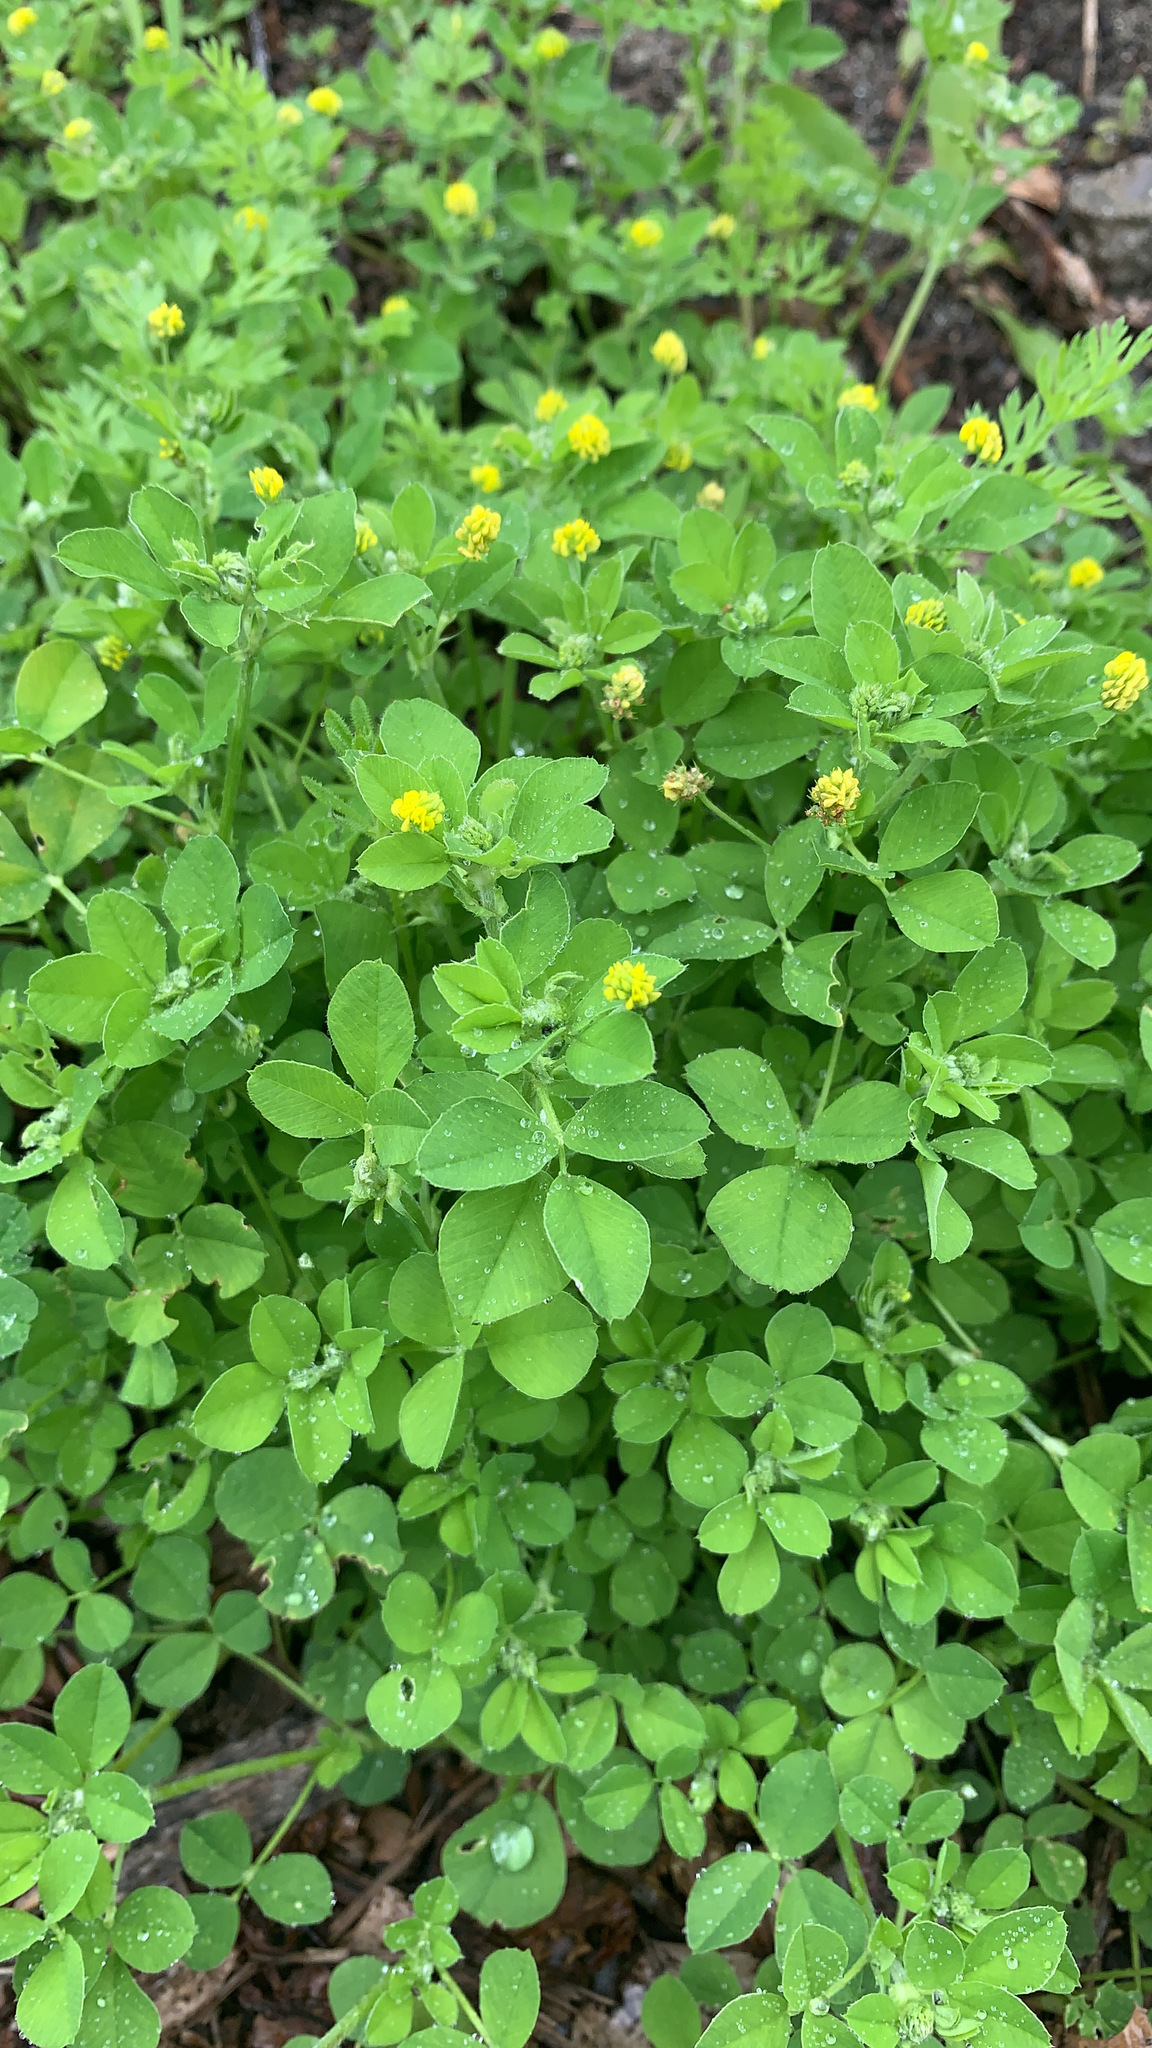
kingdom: Plantae
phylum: Tracheophyta
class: Magnoliopsida
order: Fabales
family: Fabaceae
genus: Medicago
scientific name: Medicago lupulina
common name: Black medick
